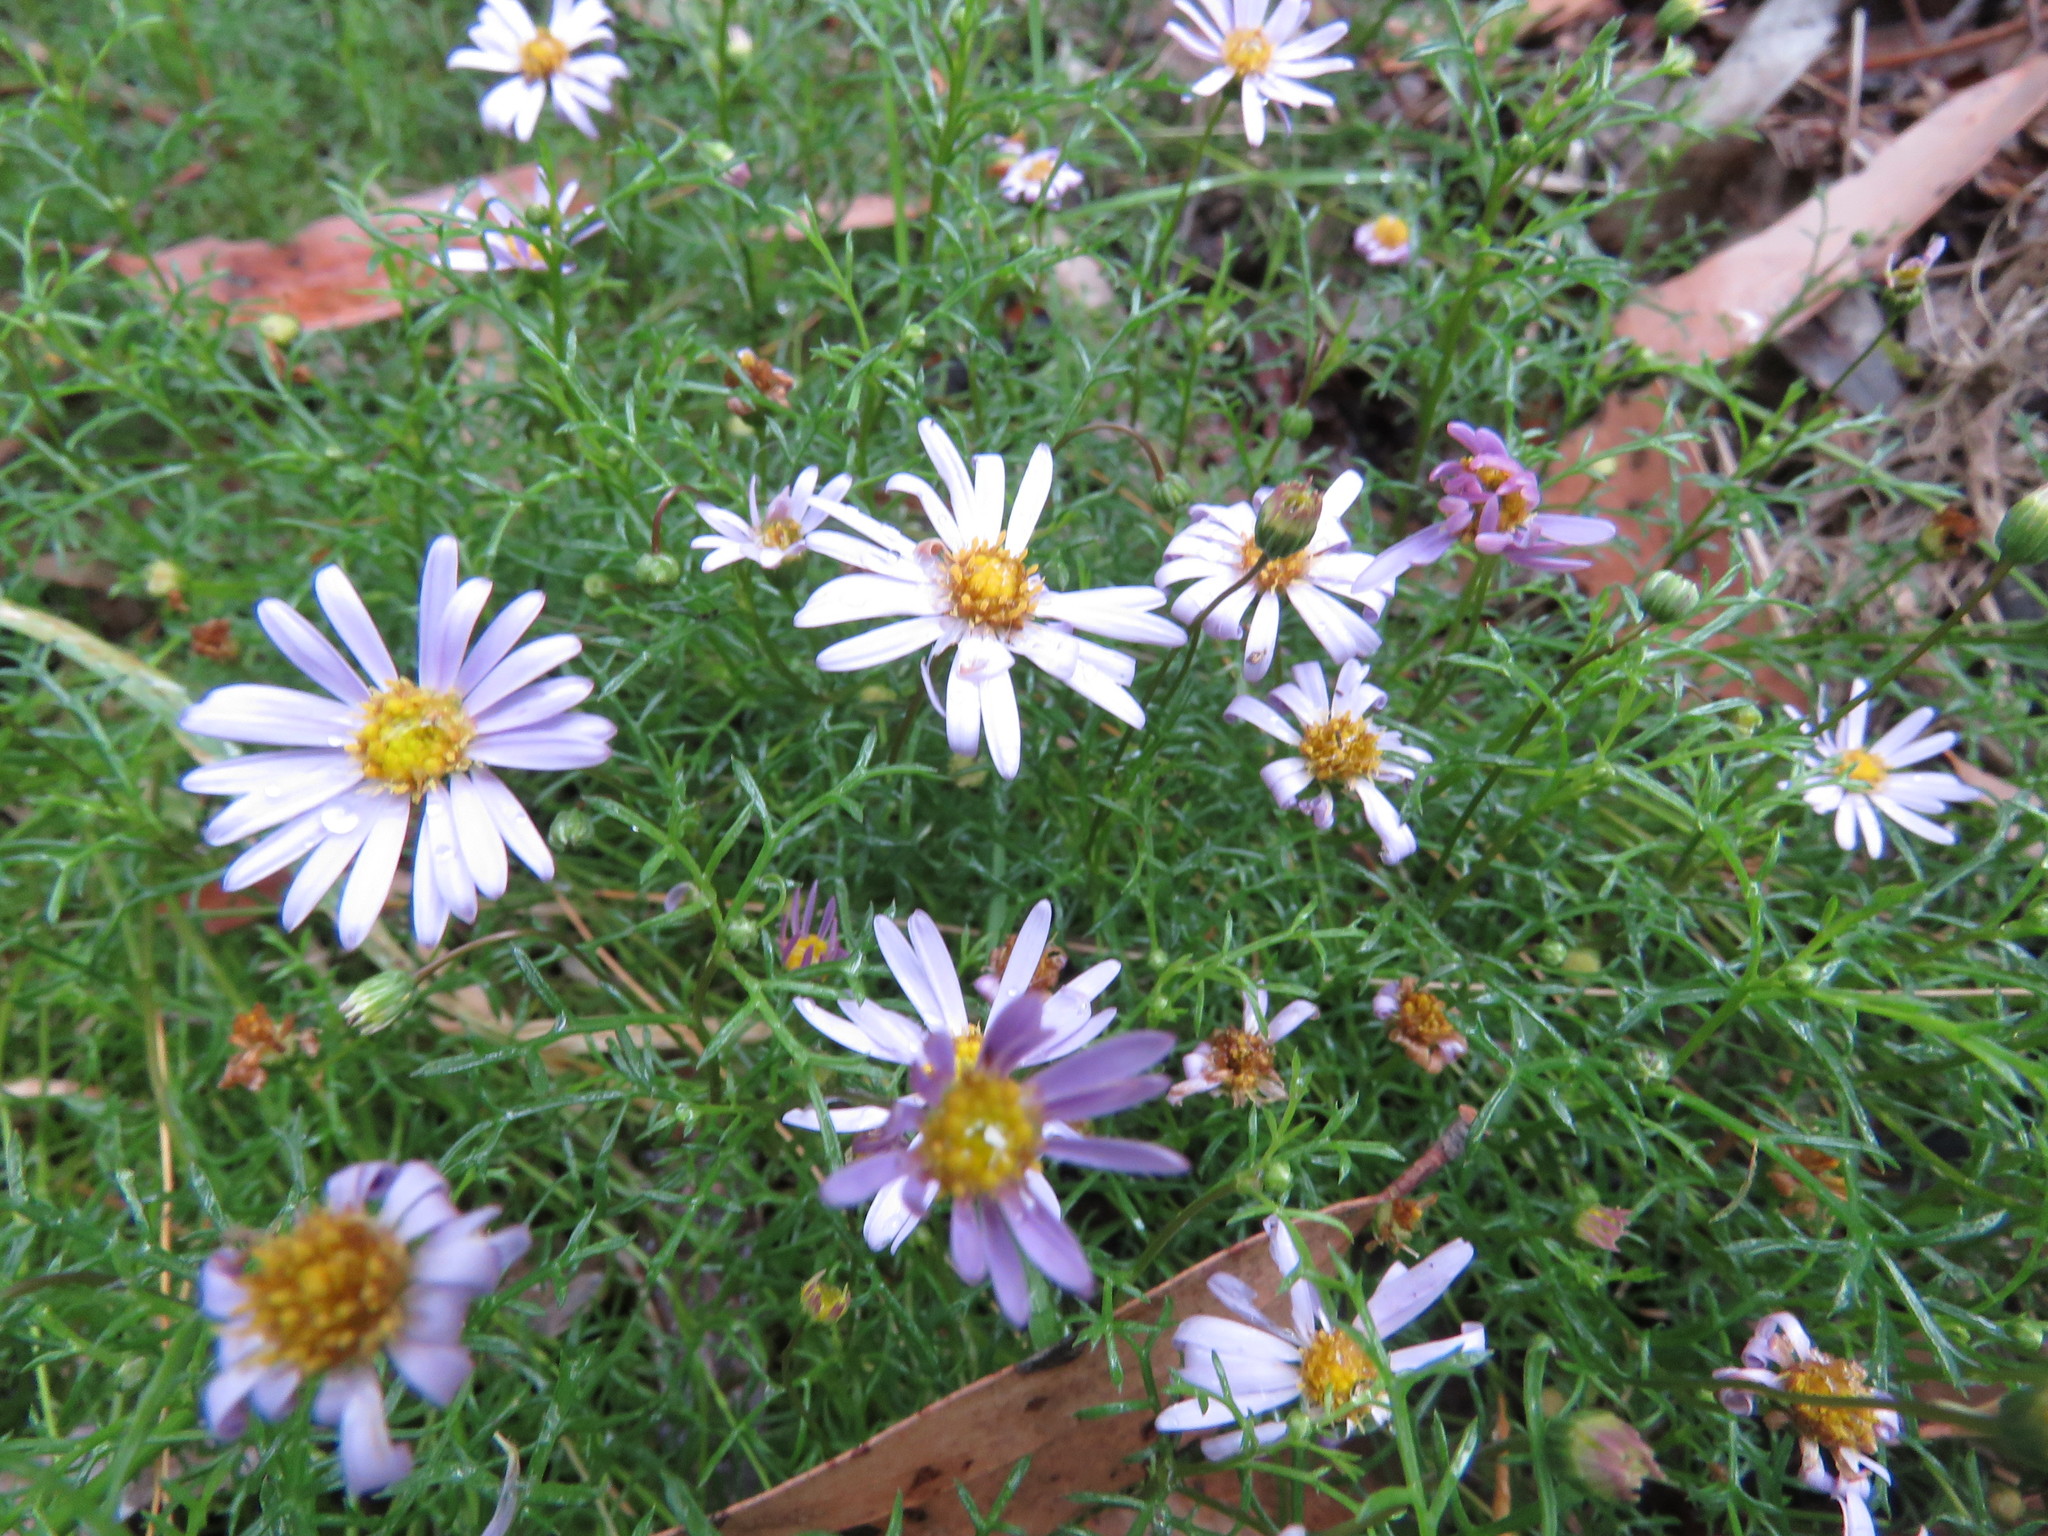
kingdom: Plantae
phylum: Tracheophyta
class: Magnoliopsida
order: Asterales
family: Asteraceae
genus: Brachyscome
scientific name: Brachyscome multifida
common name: Cut-leaf daisy
